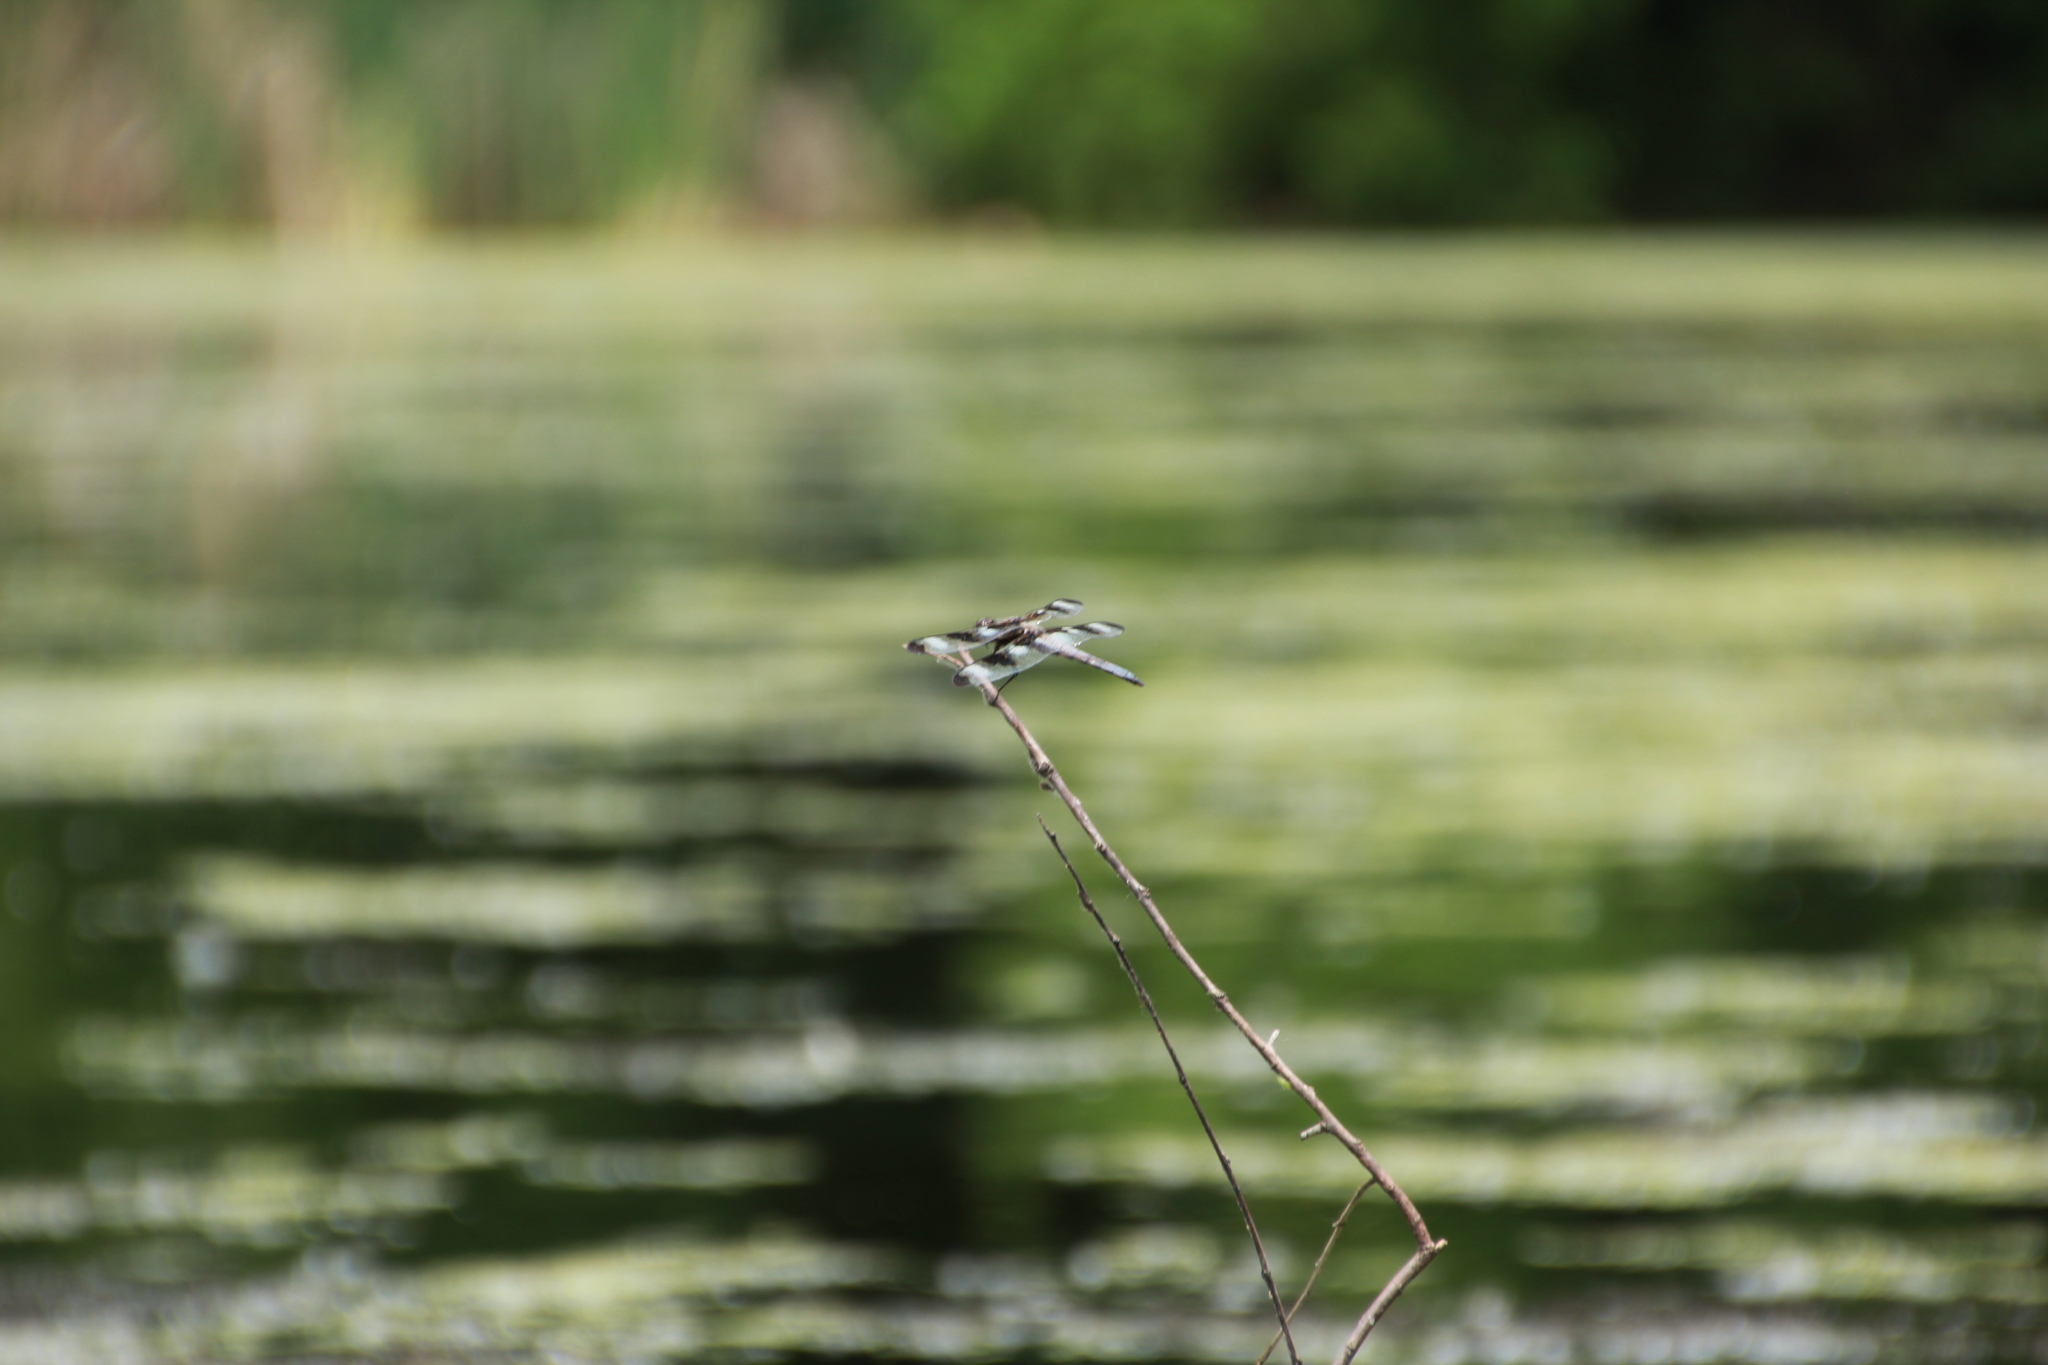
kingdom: Animalia
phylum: Arthropoda
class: Insecta
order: Odonata
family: Libellulidae
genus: Libellula
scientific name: Libellula pulchella
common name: Twelve-spotted skimmer
